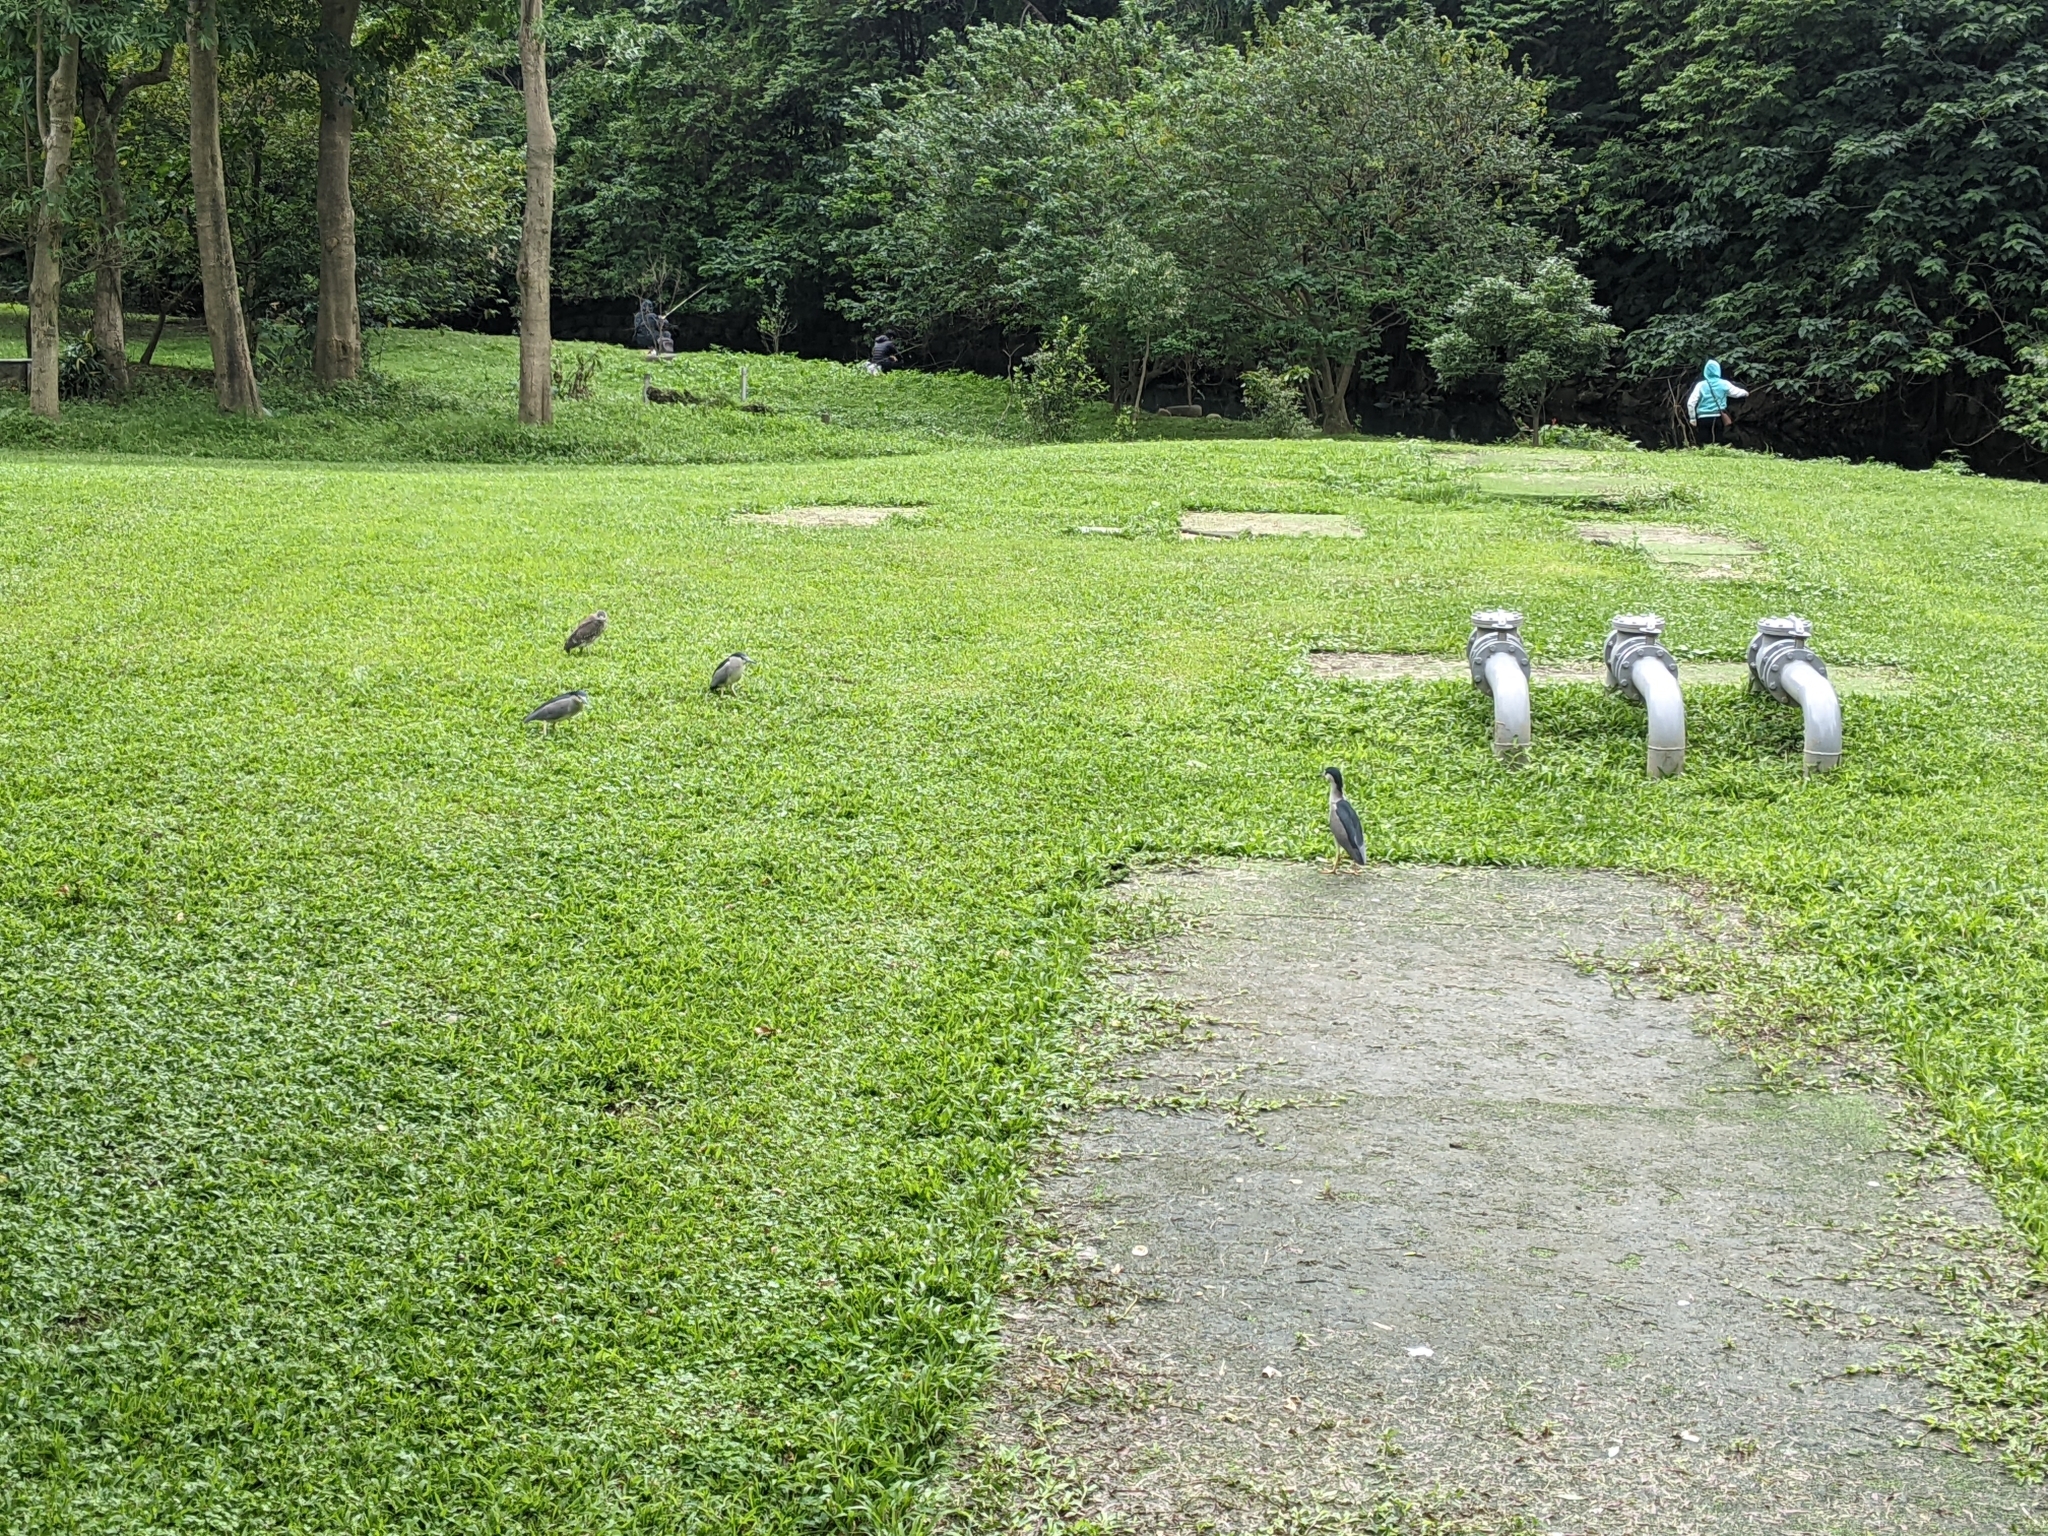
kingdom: Animalia
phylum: Chordata
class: Aves
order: Pelecaniformes
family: Ardeidae
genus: Nycticorax
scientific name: Nycticorax nycticorax
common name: Black-crowned night heron
